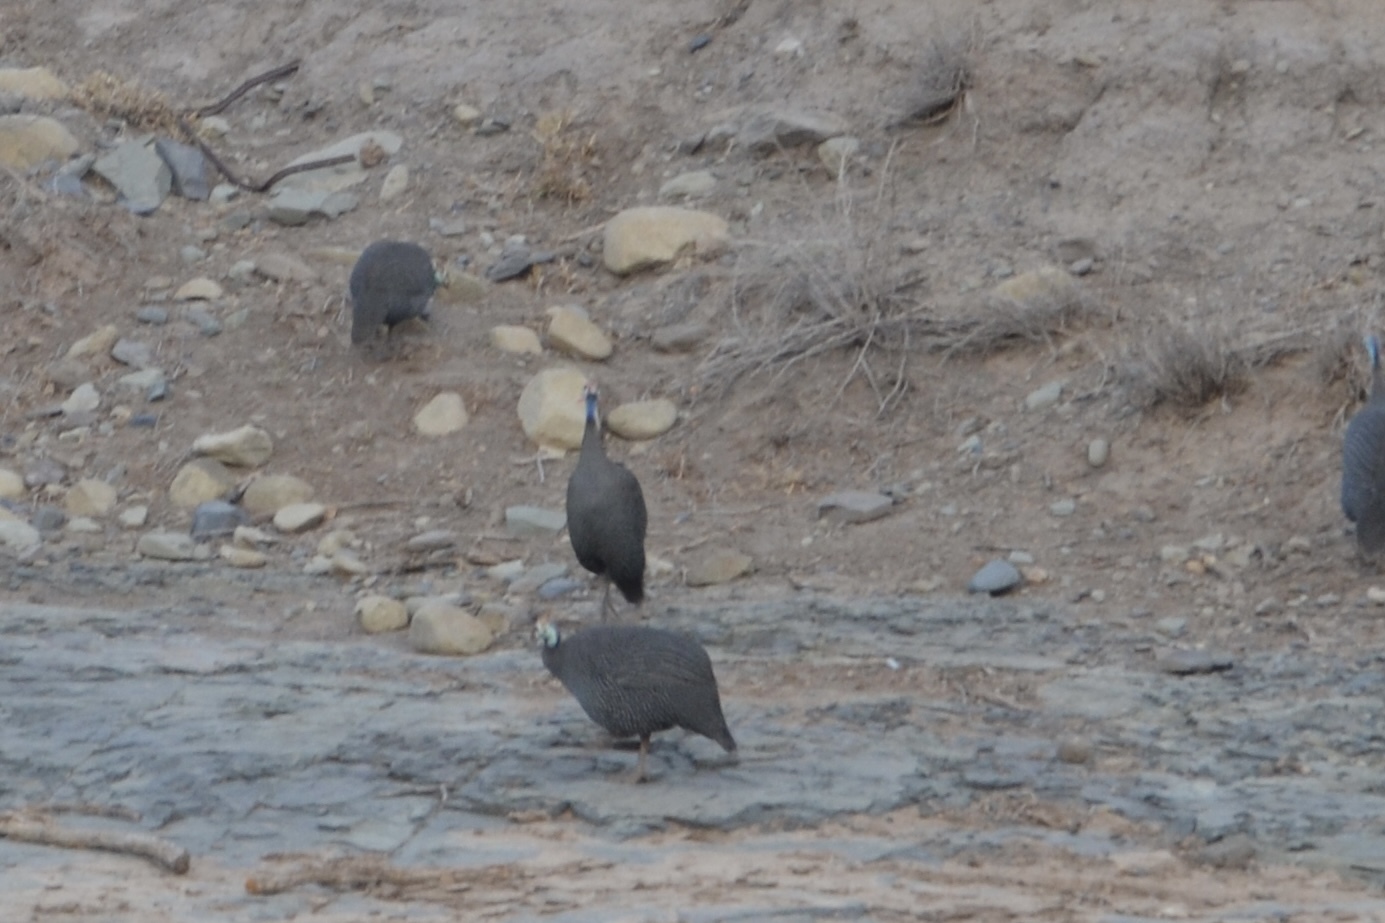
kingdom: Animalia
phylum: Chordata
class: Aves
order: Galliformes
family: Numididae
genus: Numida
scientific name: Numida meleagris
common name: Helmeted guineafowl
